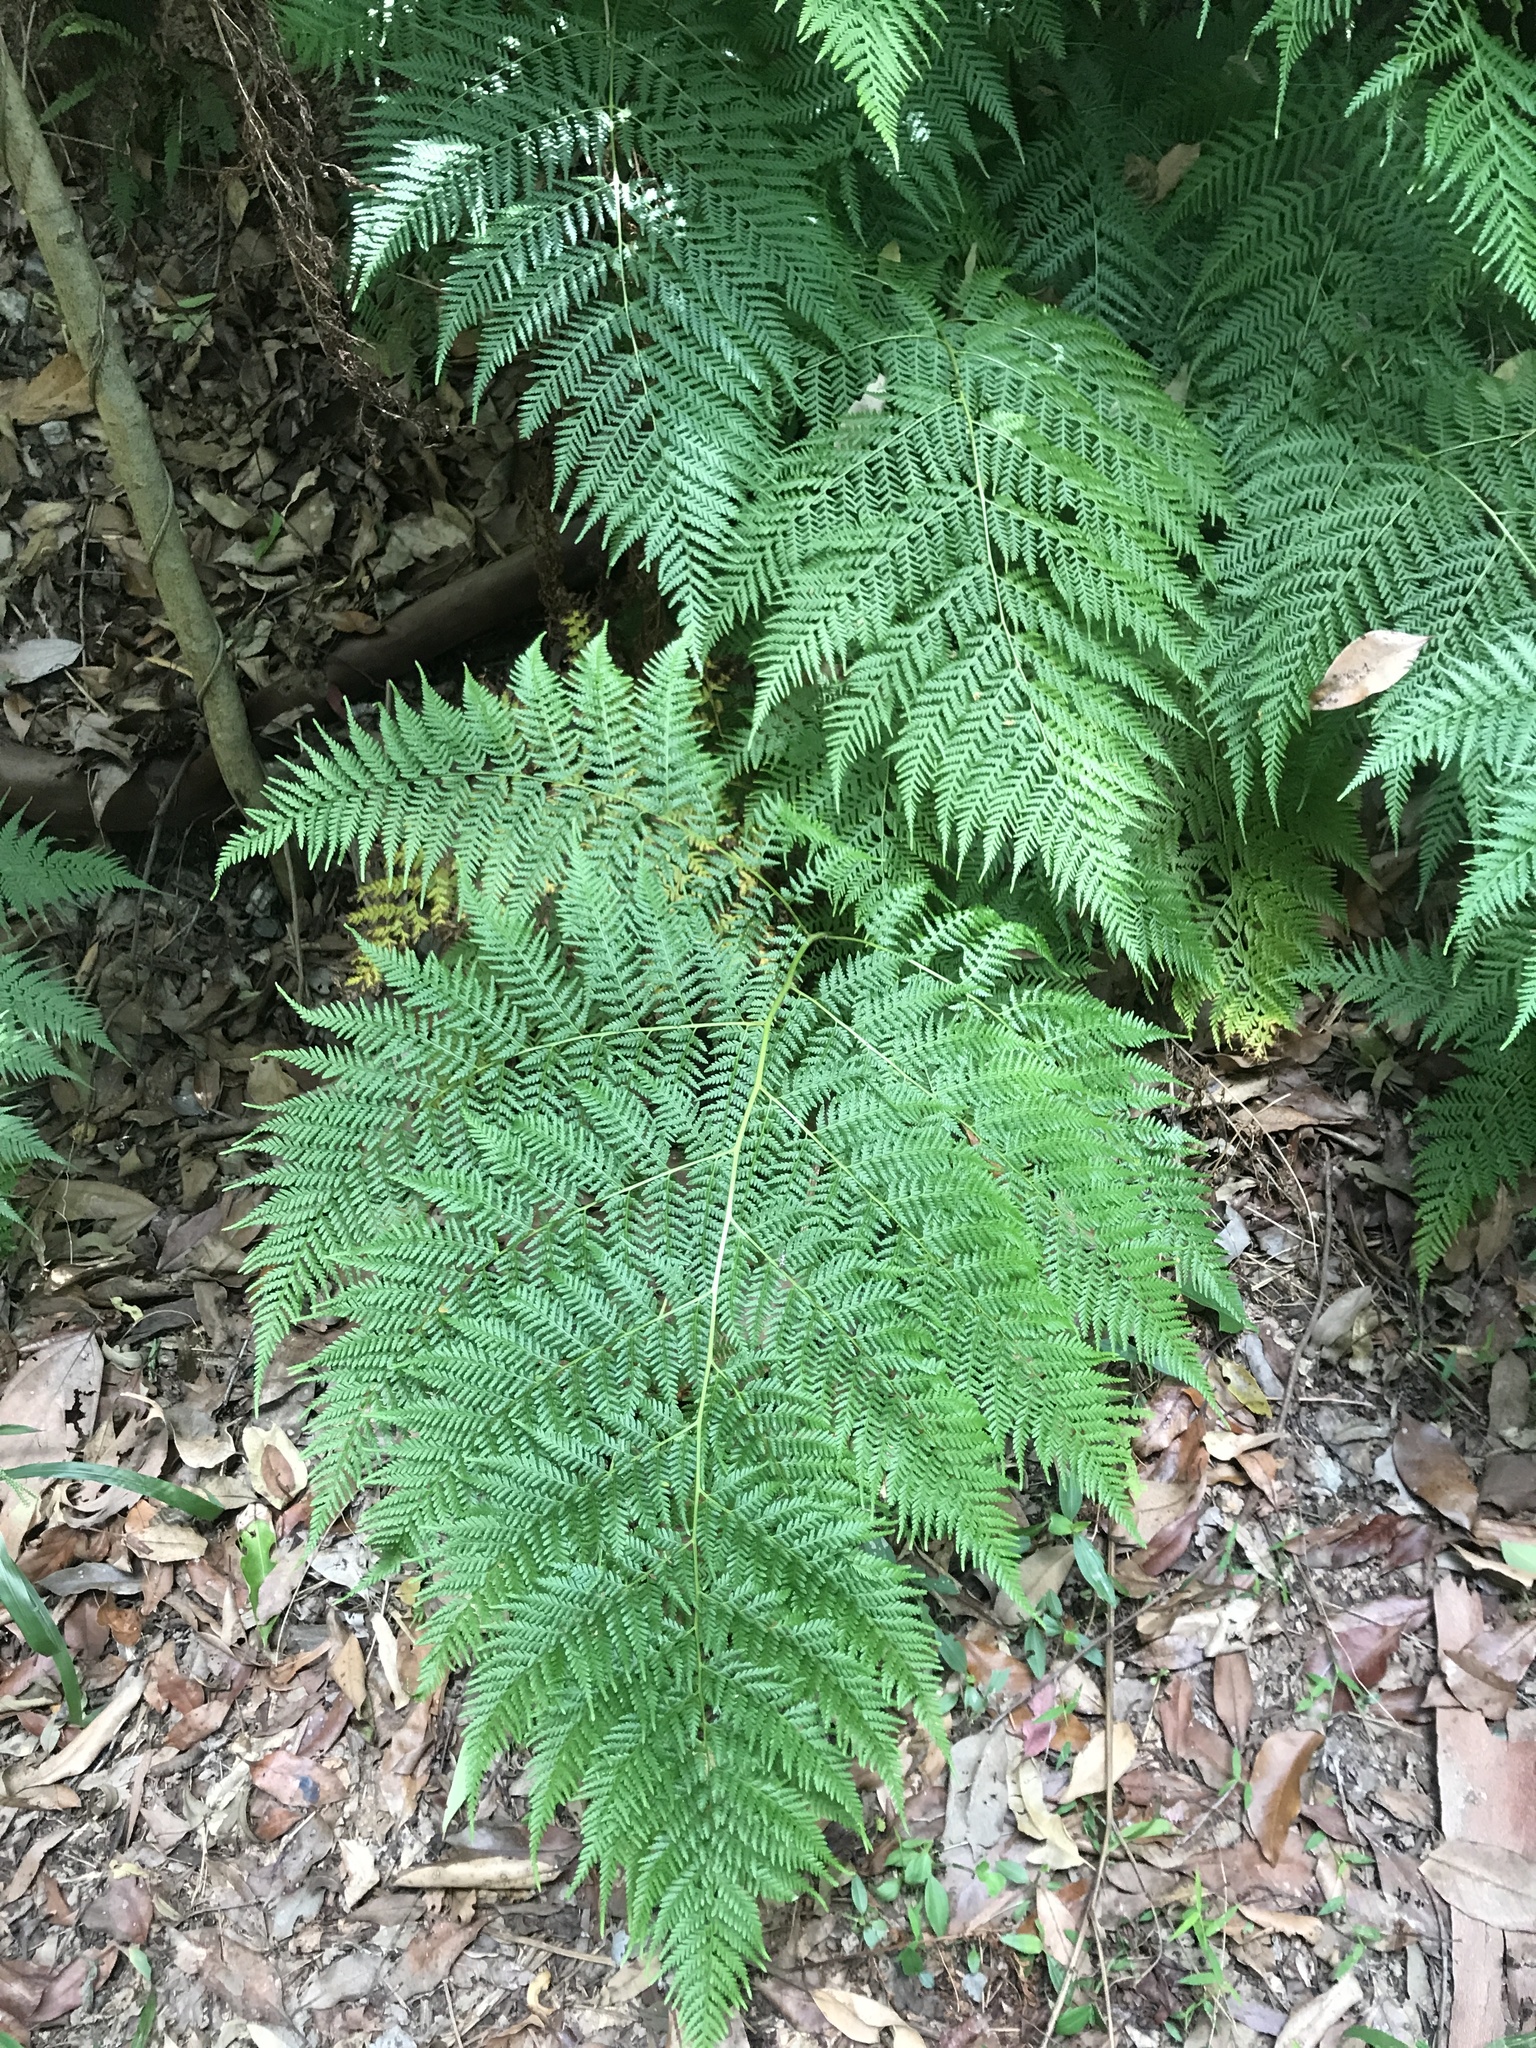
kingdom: Plantae
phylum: Tracheophyta
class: Polypodiopsida
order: Cyatheales
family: Dicksoniaceae
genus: Calochlaena
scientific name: Calochlaena dubia
